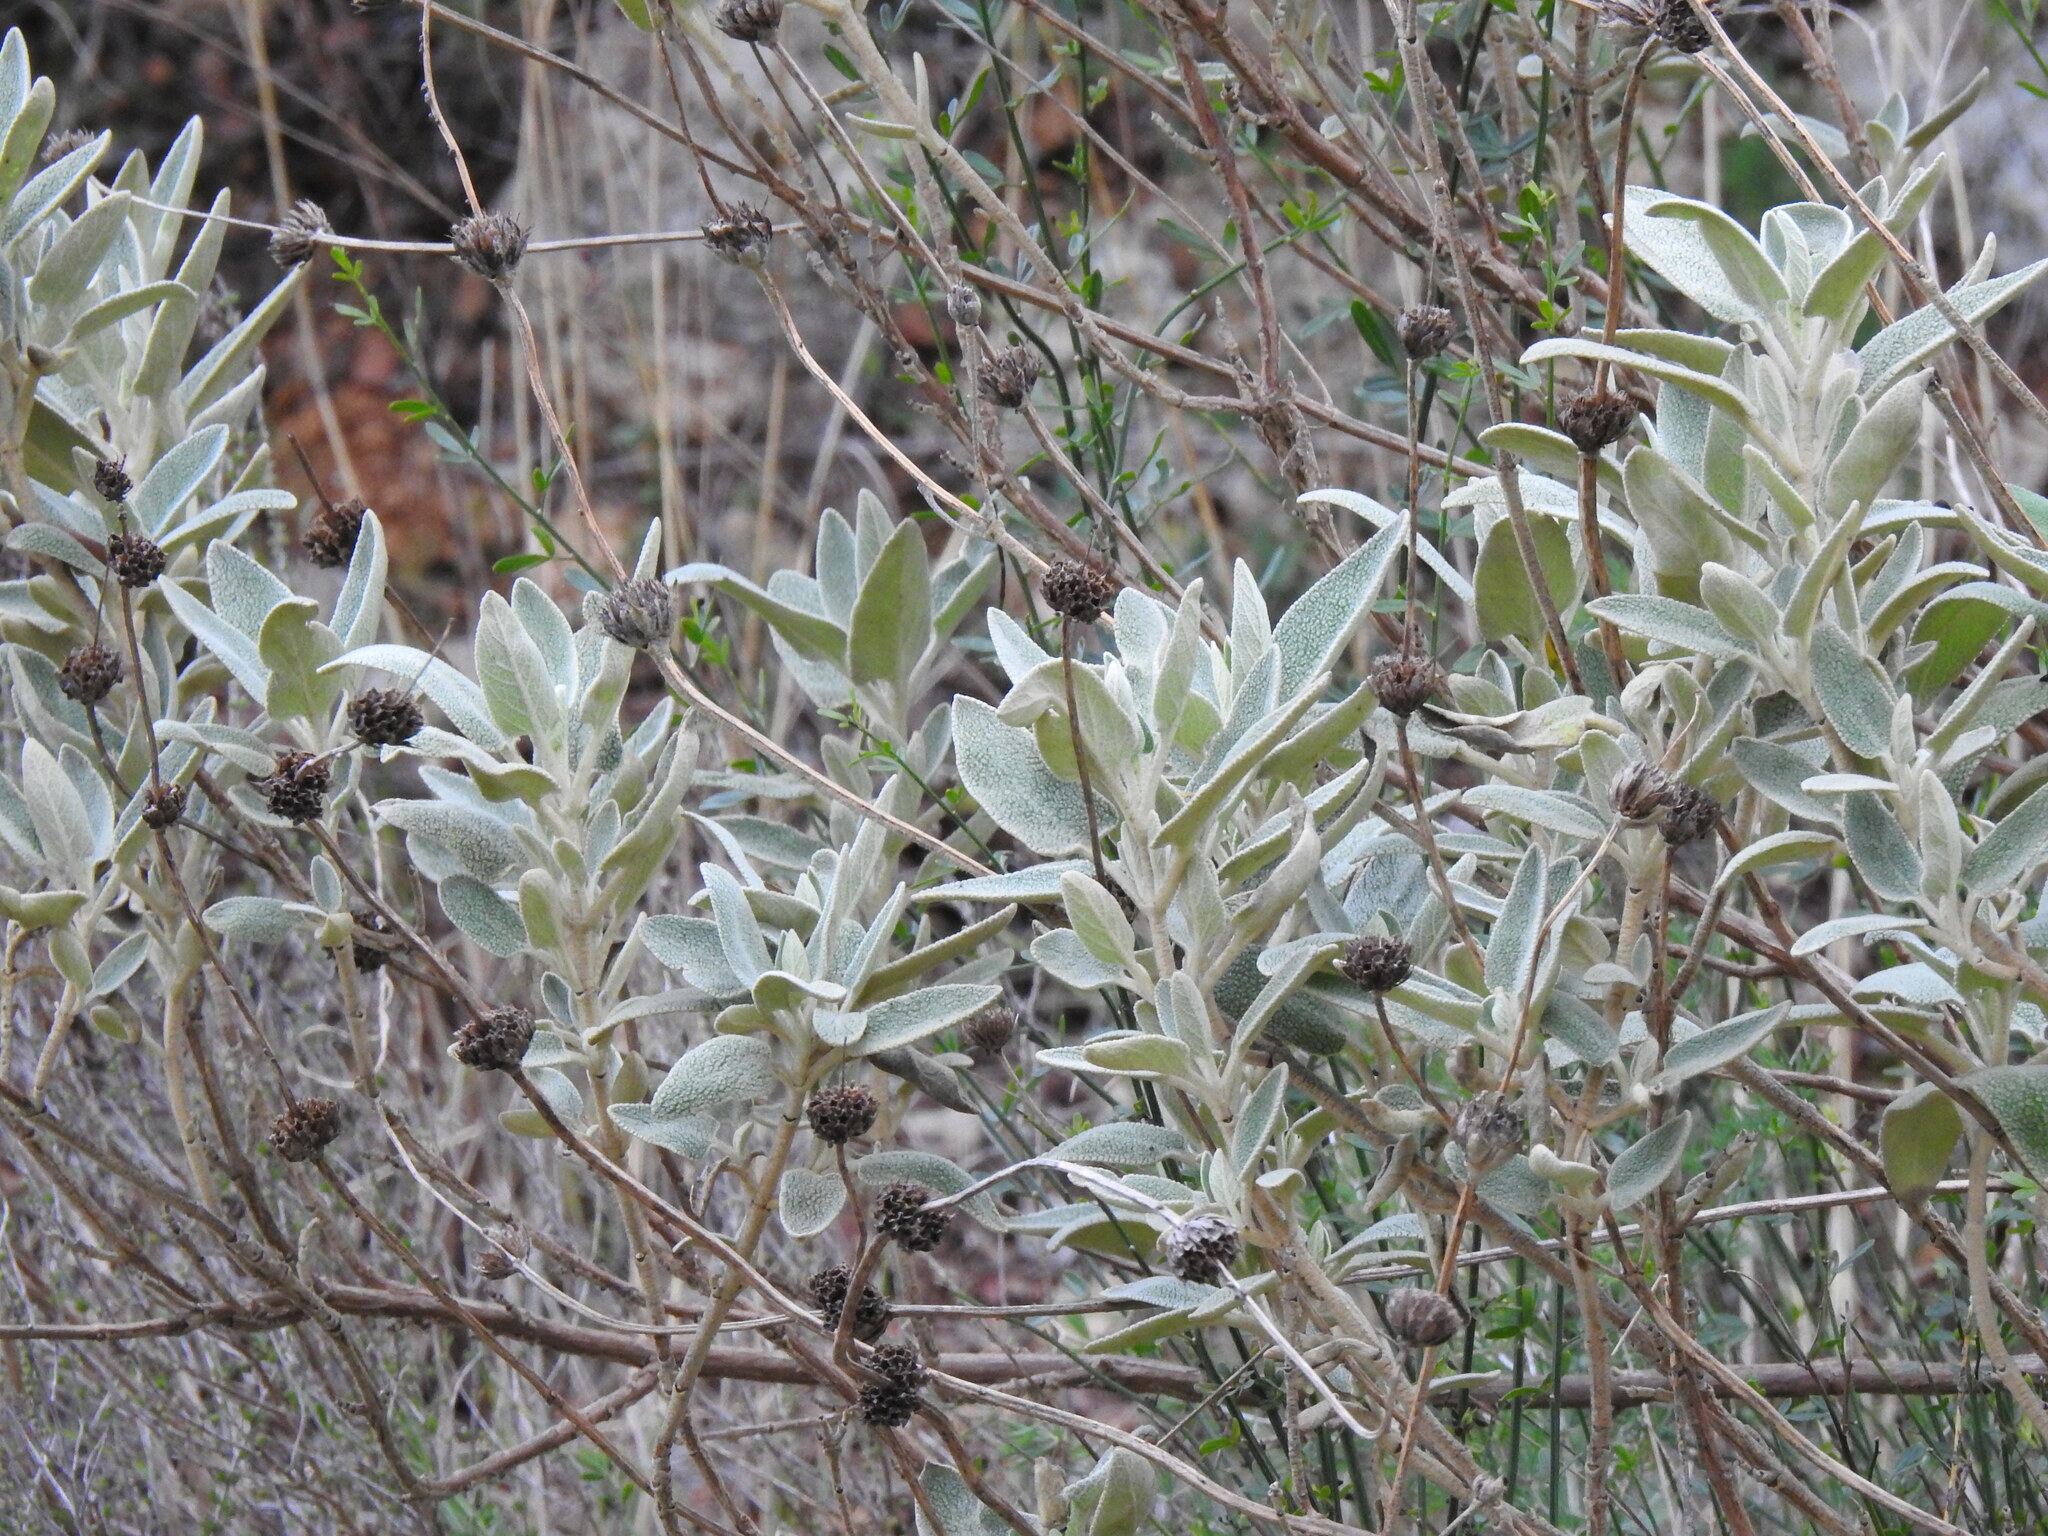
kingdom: Plantae
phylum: Tracheophyta
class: Magnoliopsida
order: Lamiales
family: Lamiaceae
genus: Phlomis
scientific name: Phlomis purpurea
